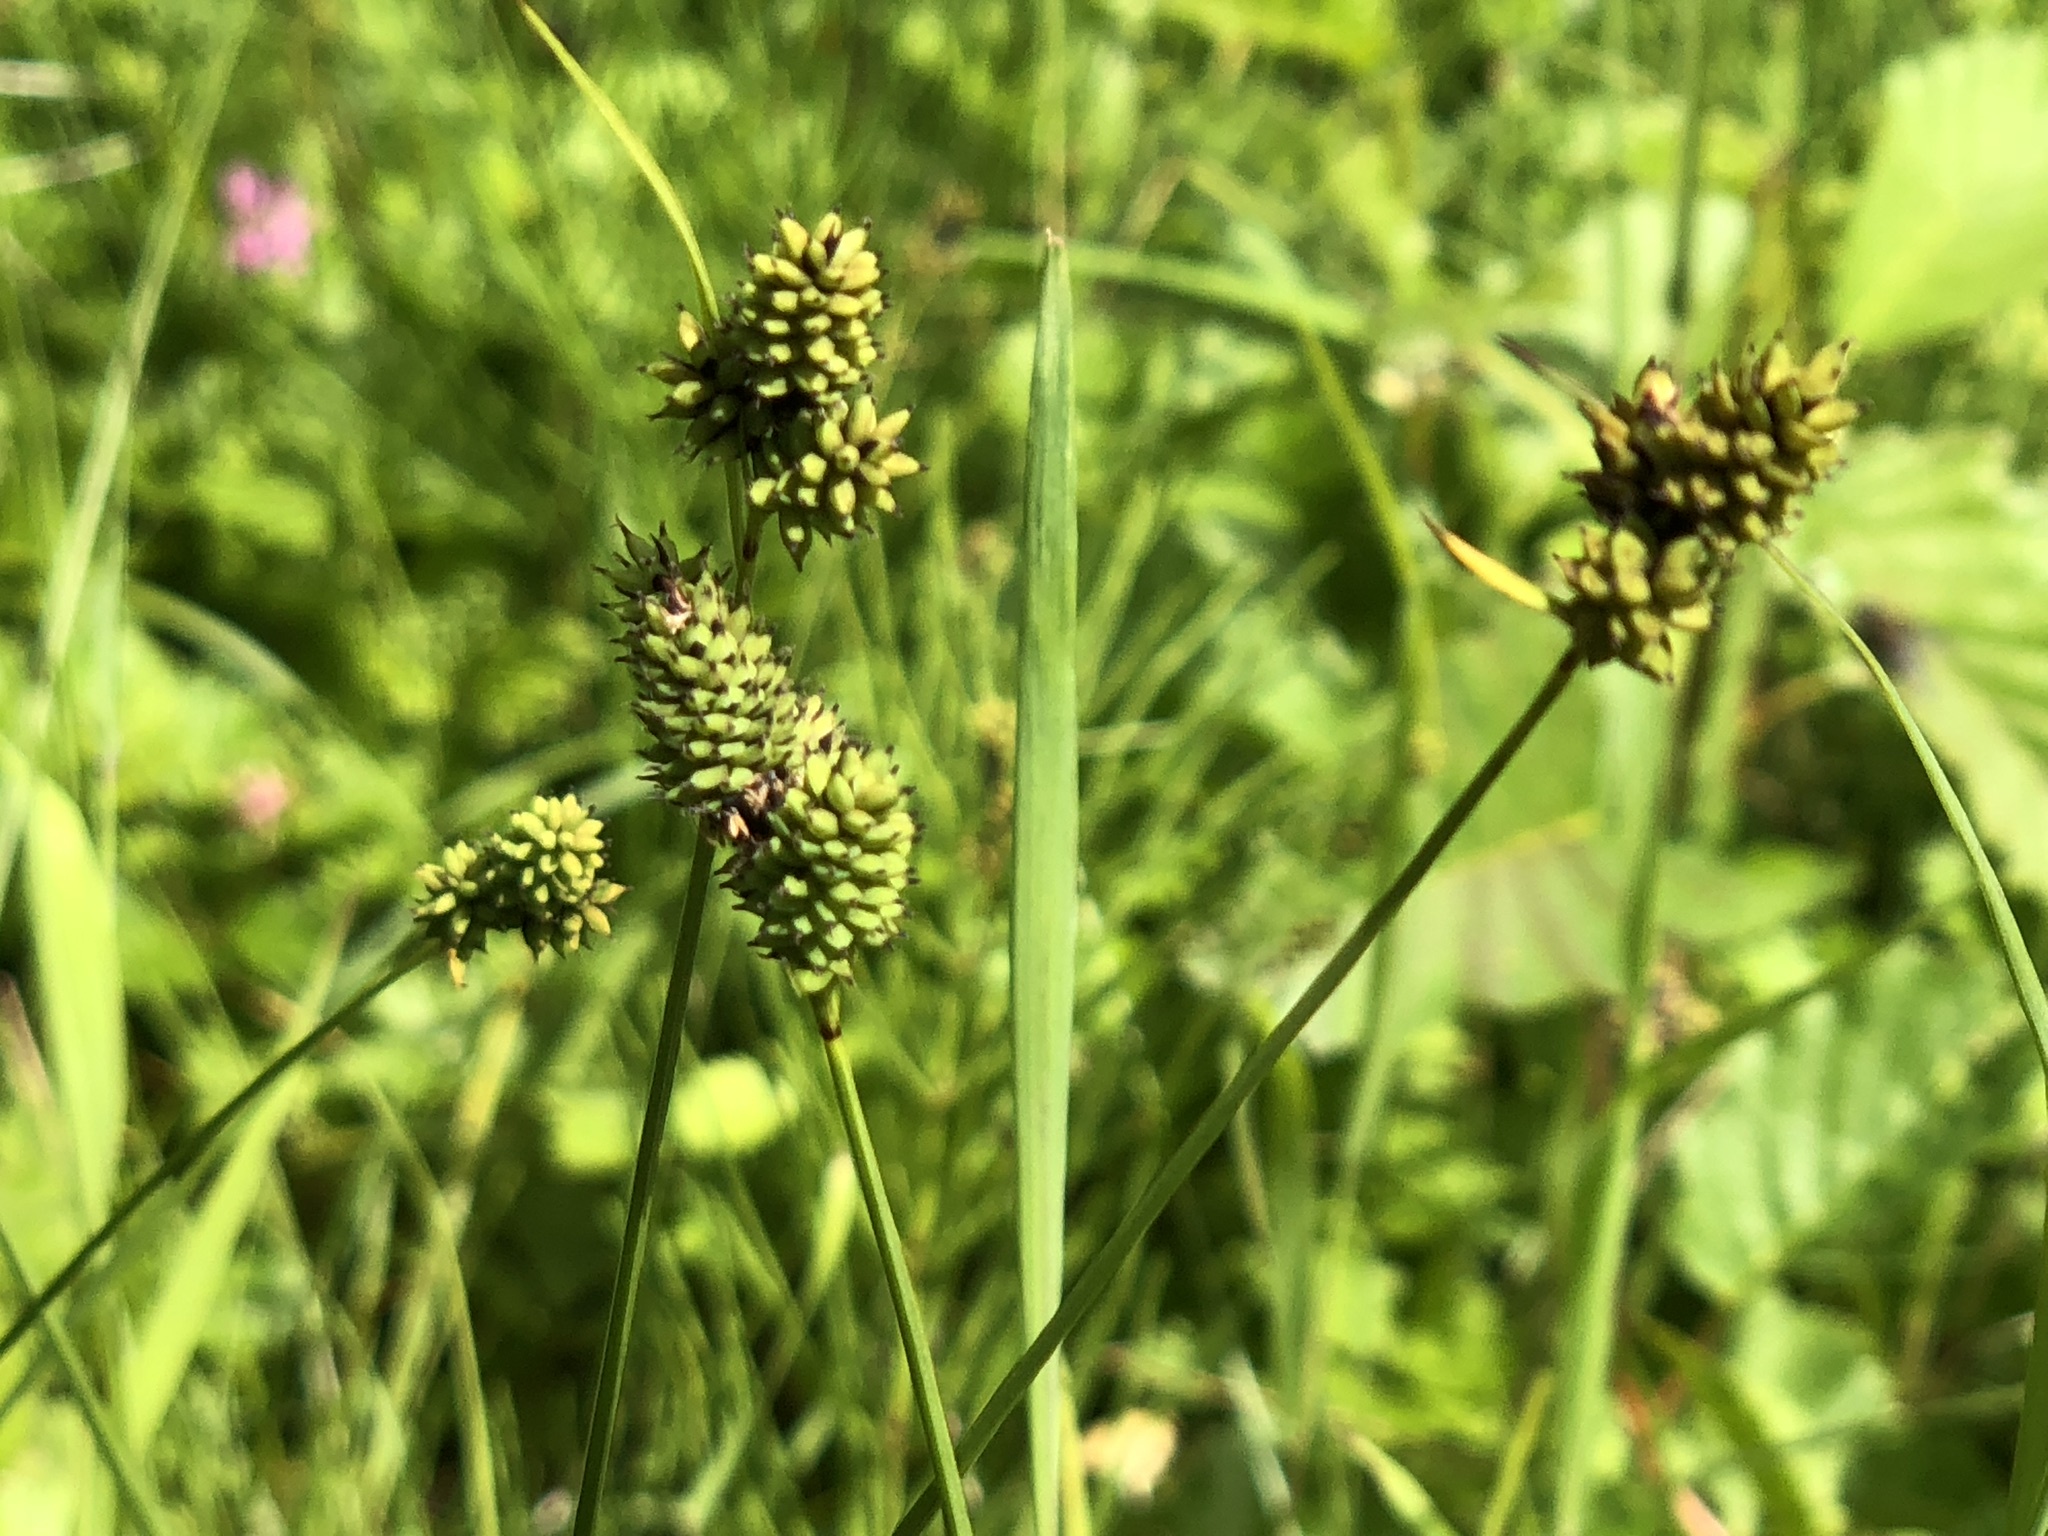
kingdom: Plantae
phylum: Tracheophyta
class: Liliopsida
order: Poales
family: Cyperaceae
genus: Carex
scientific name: Carex media
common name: Alpine sedge
